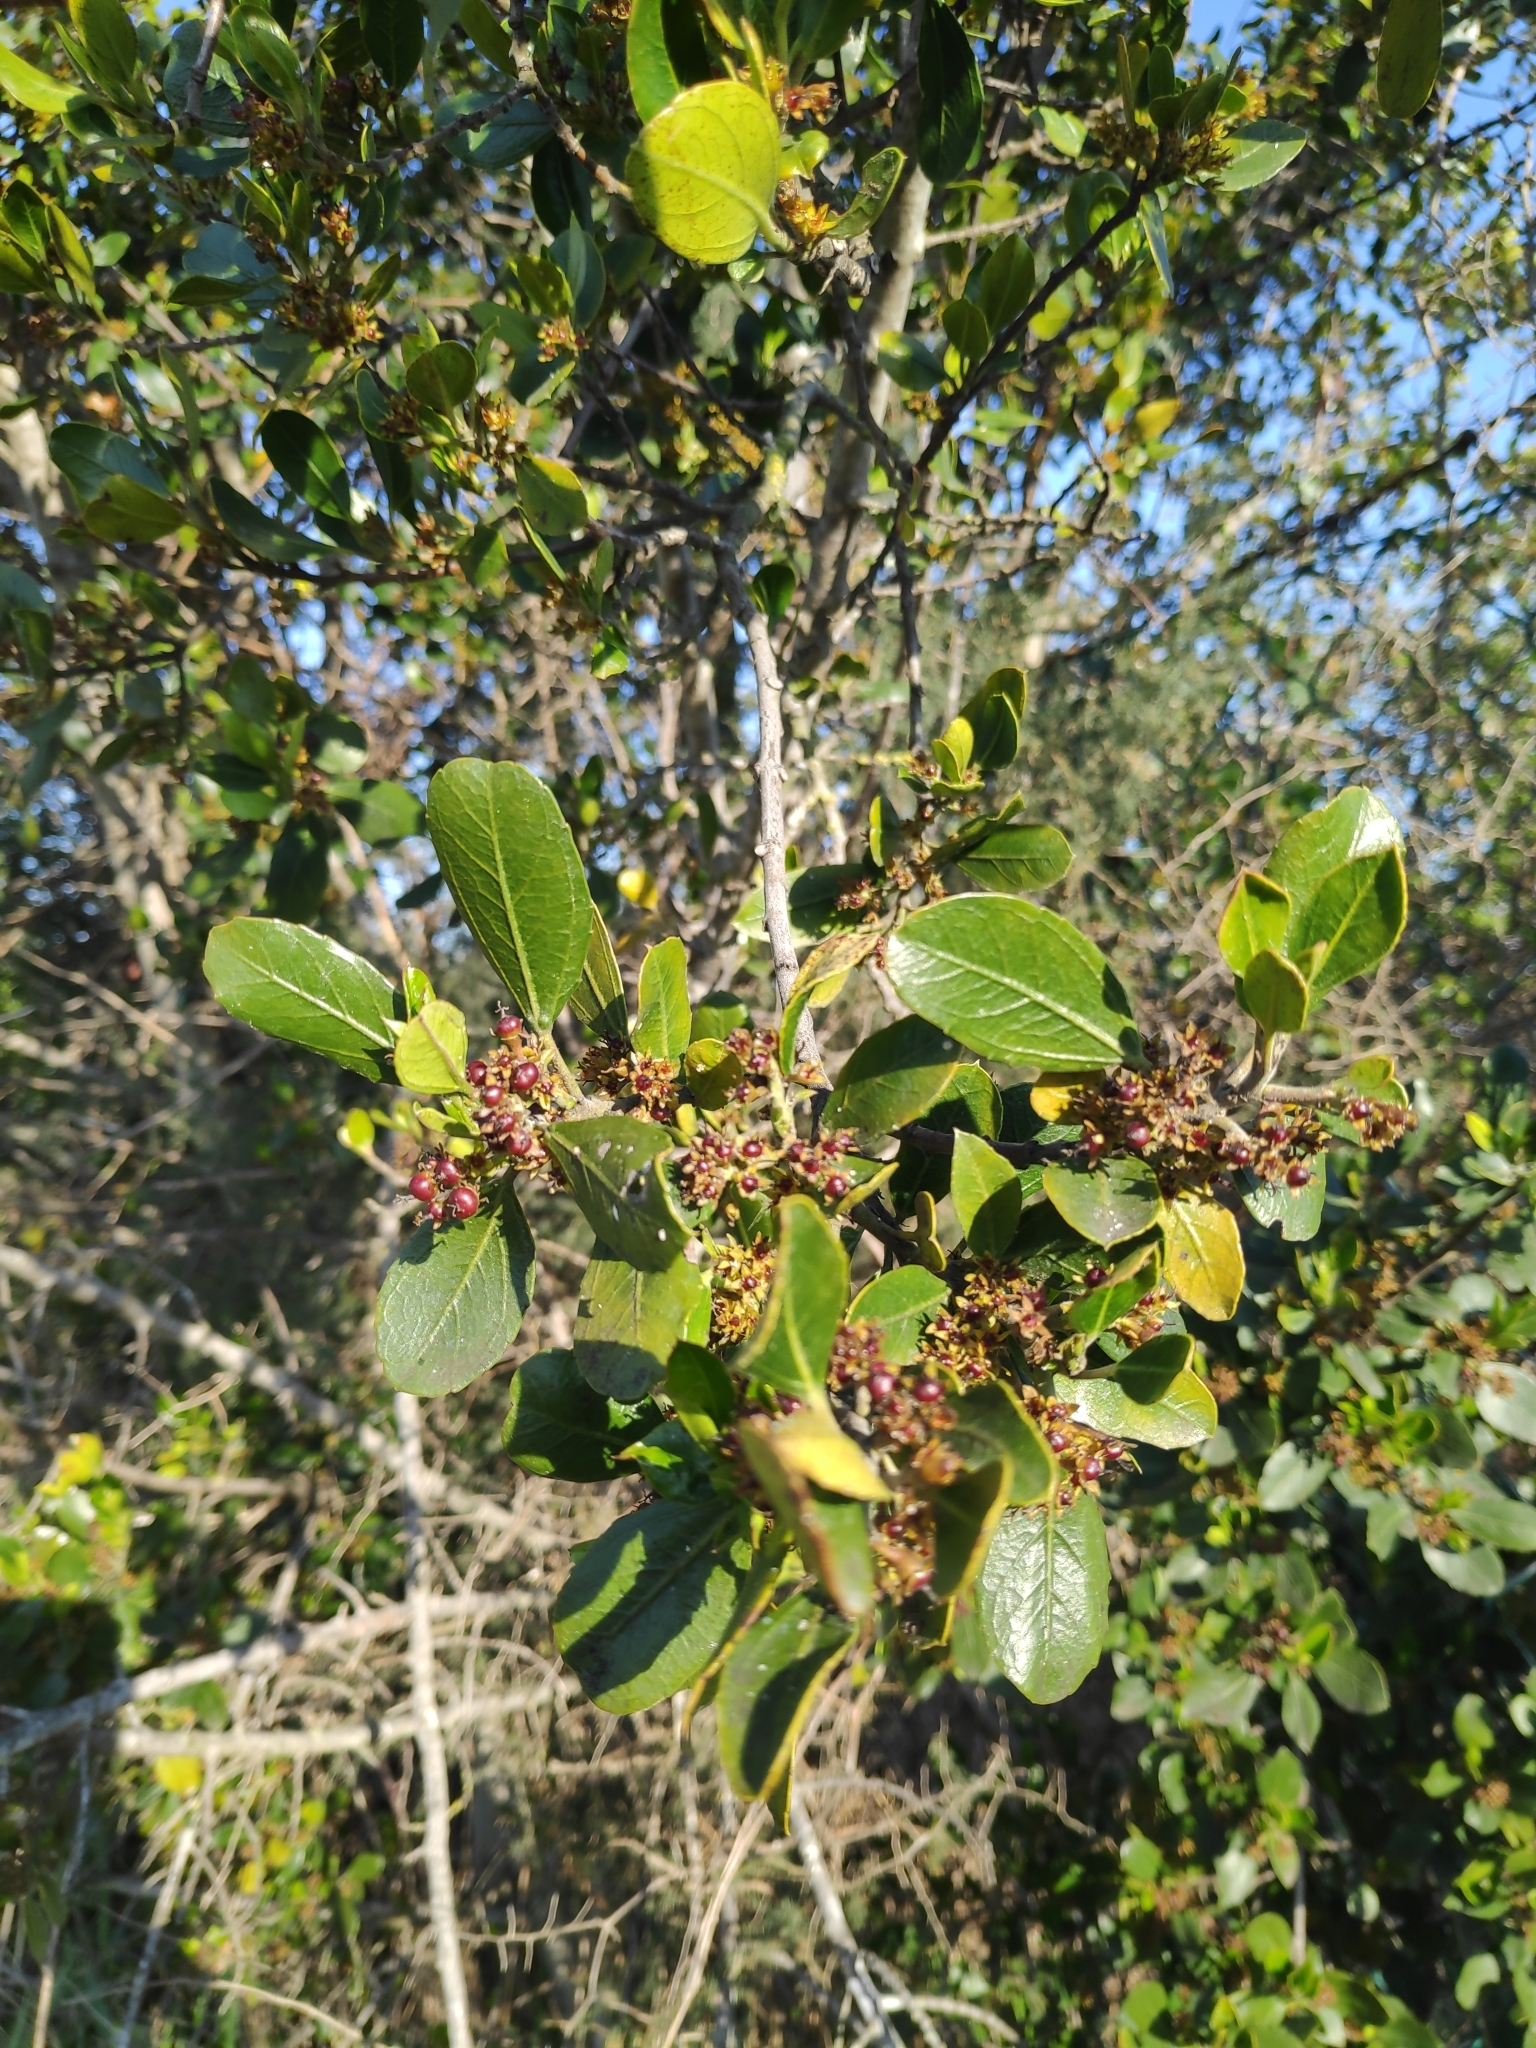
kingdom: Plantae
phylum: Tracheophyta
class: Magnoliopsida
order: Rosales
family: Rhamnaceae
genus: Rhamnus
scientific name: Rhamnus alaternus
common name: Mediterranean buckthorn
